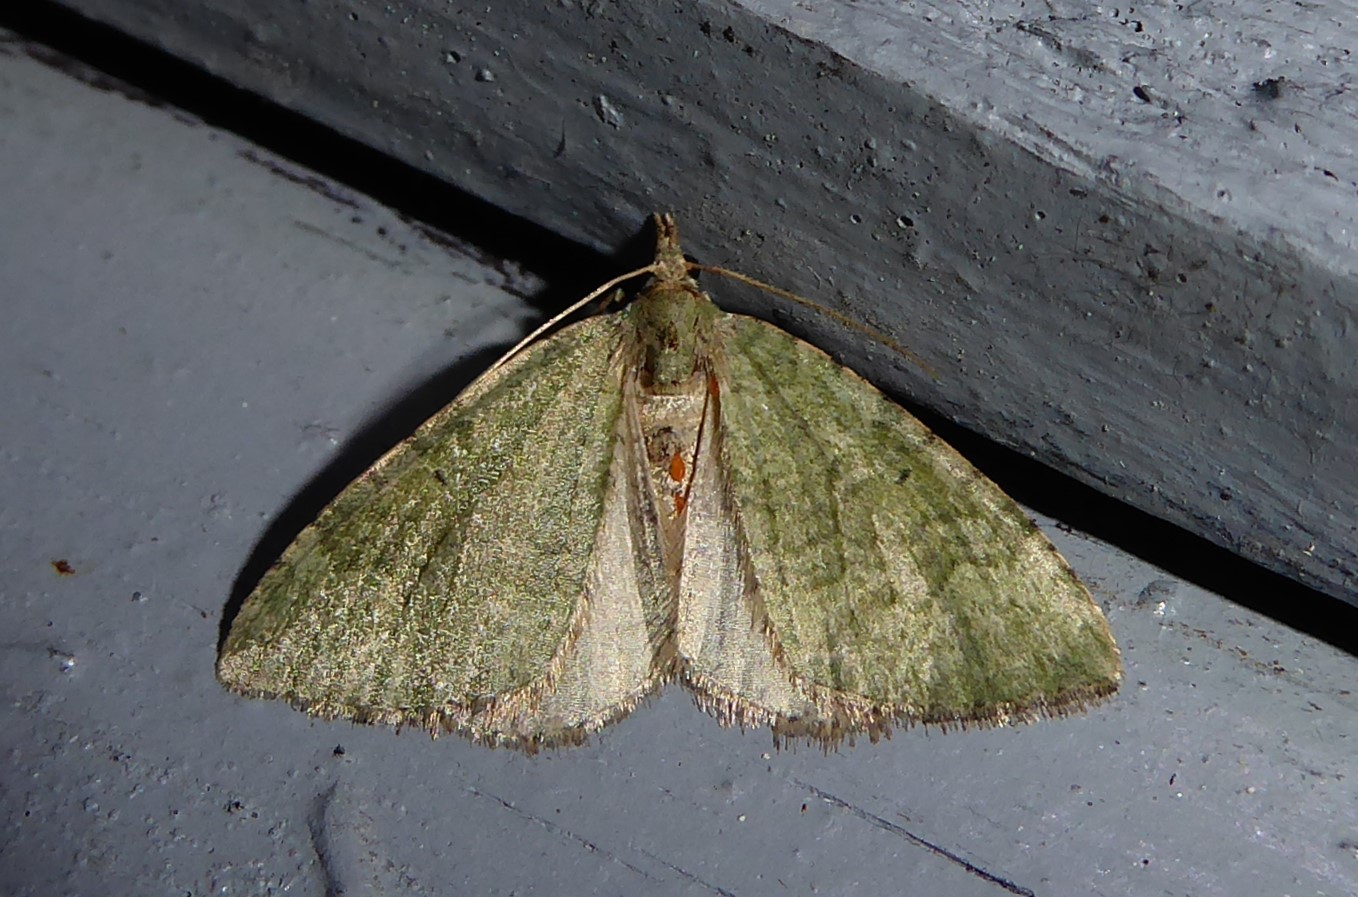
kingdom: Animalia
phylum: Arthropoda
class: Insecta
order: Lepidoptera
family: Geometridae
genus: Epyaxa
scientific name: Epyaxa rosearia
